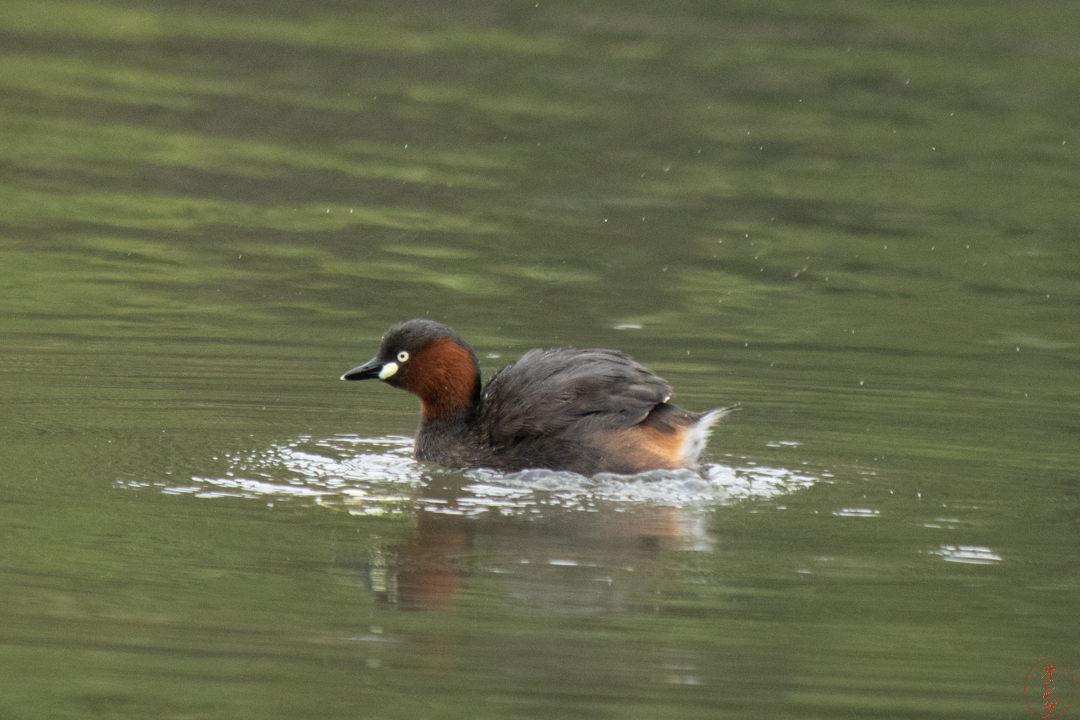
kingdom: Animalia
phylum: Chordata
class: Aves
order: Podicipediformes
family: Podicipedidae
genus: Tachybaptus
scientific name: Tachybaptus ruficollis
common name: Little grebe
